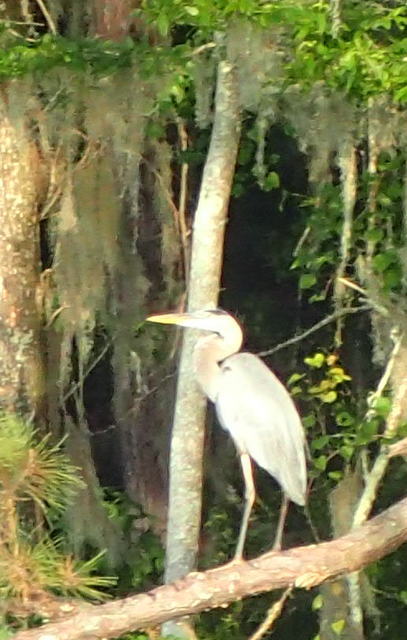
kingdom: Animalia
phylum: Chordata
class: Aves
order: Pelecaniformes
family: Ardeidae
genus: Ardea
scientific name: Ardea herodias
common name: Great blue heron
